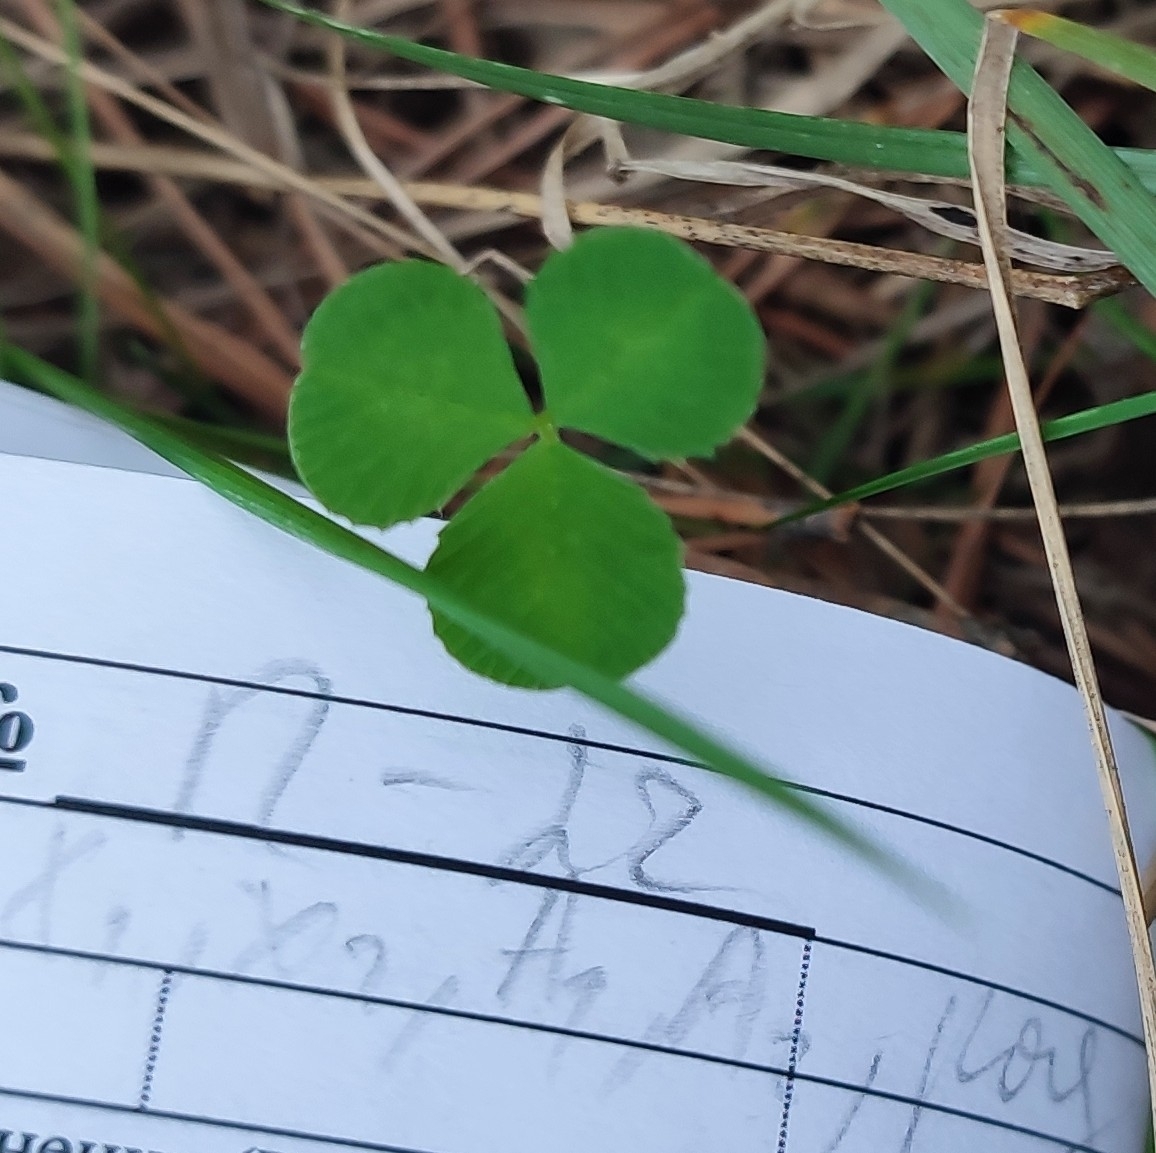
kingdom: Plantae
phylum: Tracheophyta
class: Magnoliopsida
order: Fabales
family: Fabaceae
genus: Trifolium
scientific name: Trifolium repens
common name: White clover
